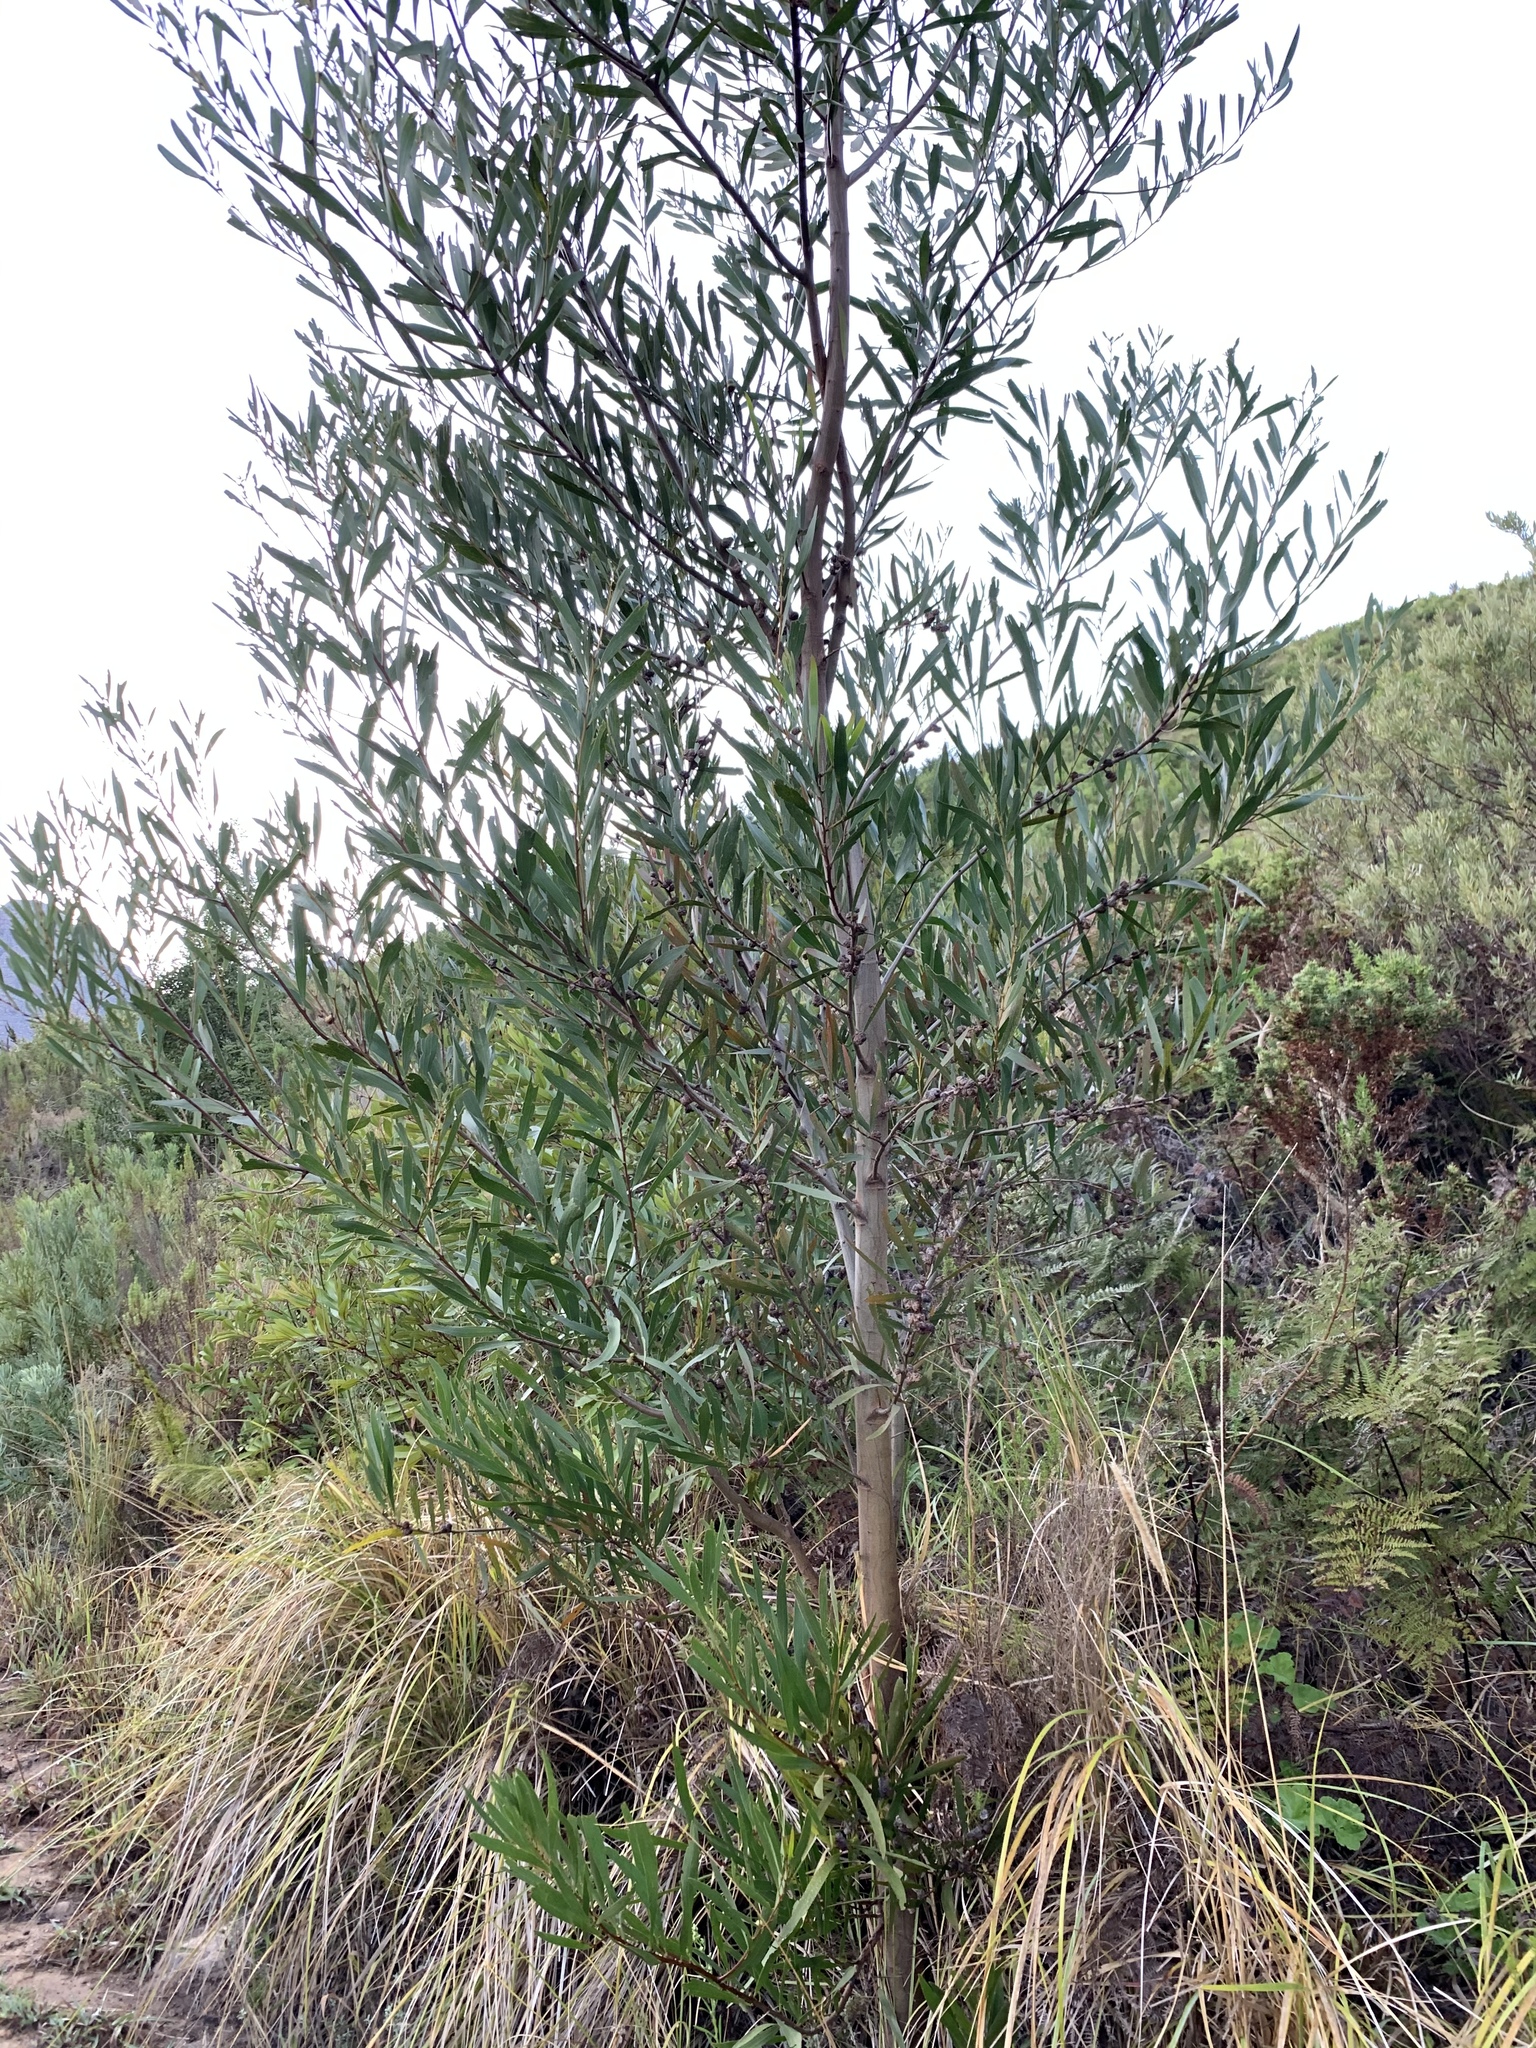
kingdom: Plantae
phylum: Tracheophyta
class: Magnoliopsida
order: Fabales
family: Fabaceae
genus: Acacia
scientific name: Acacia longifolia
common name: Sydney golden wattle
